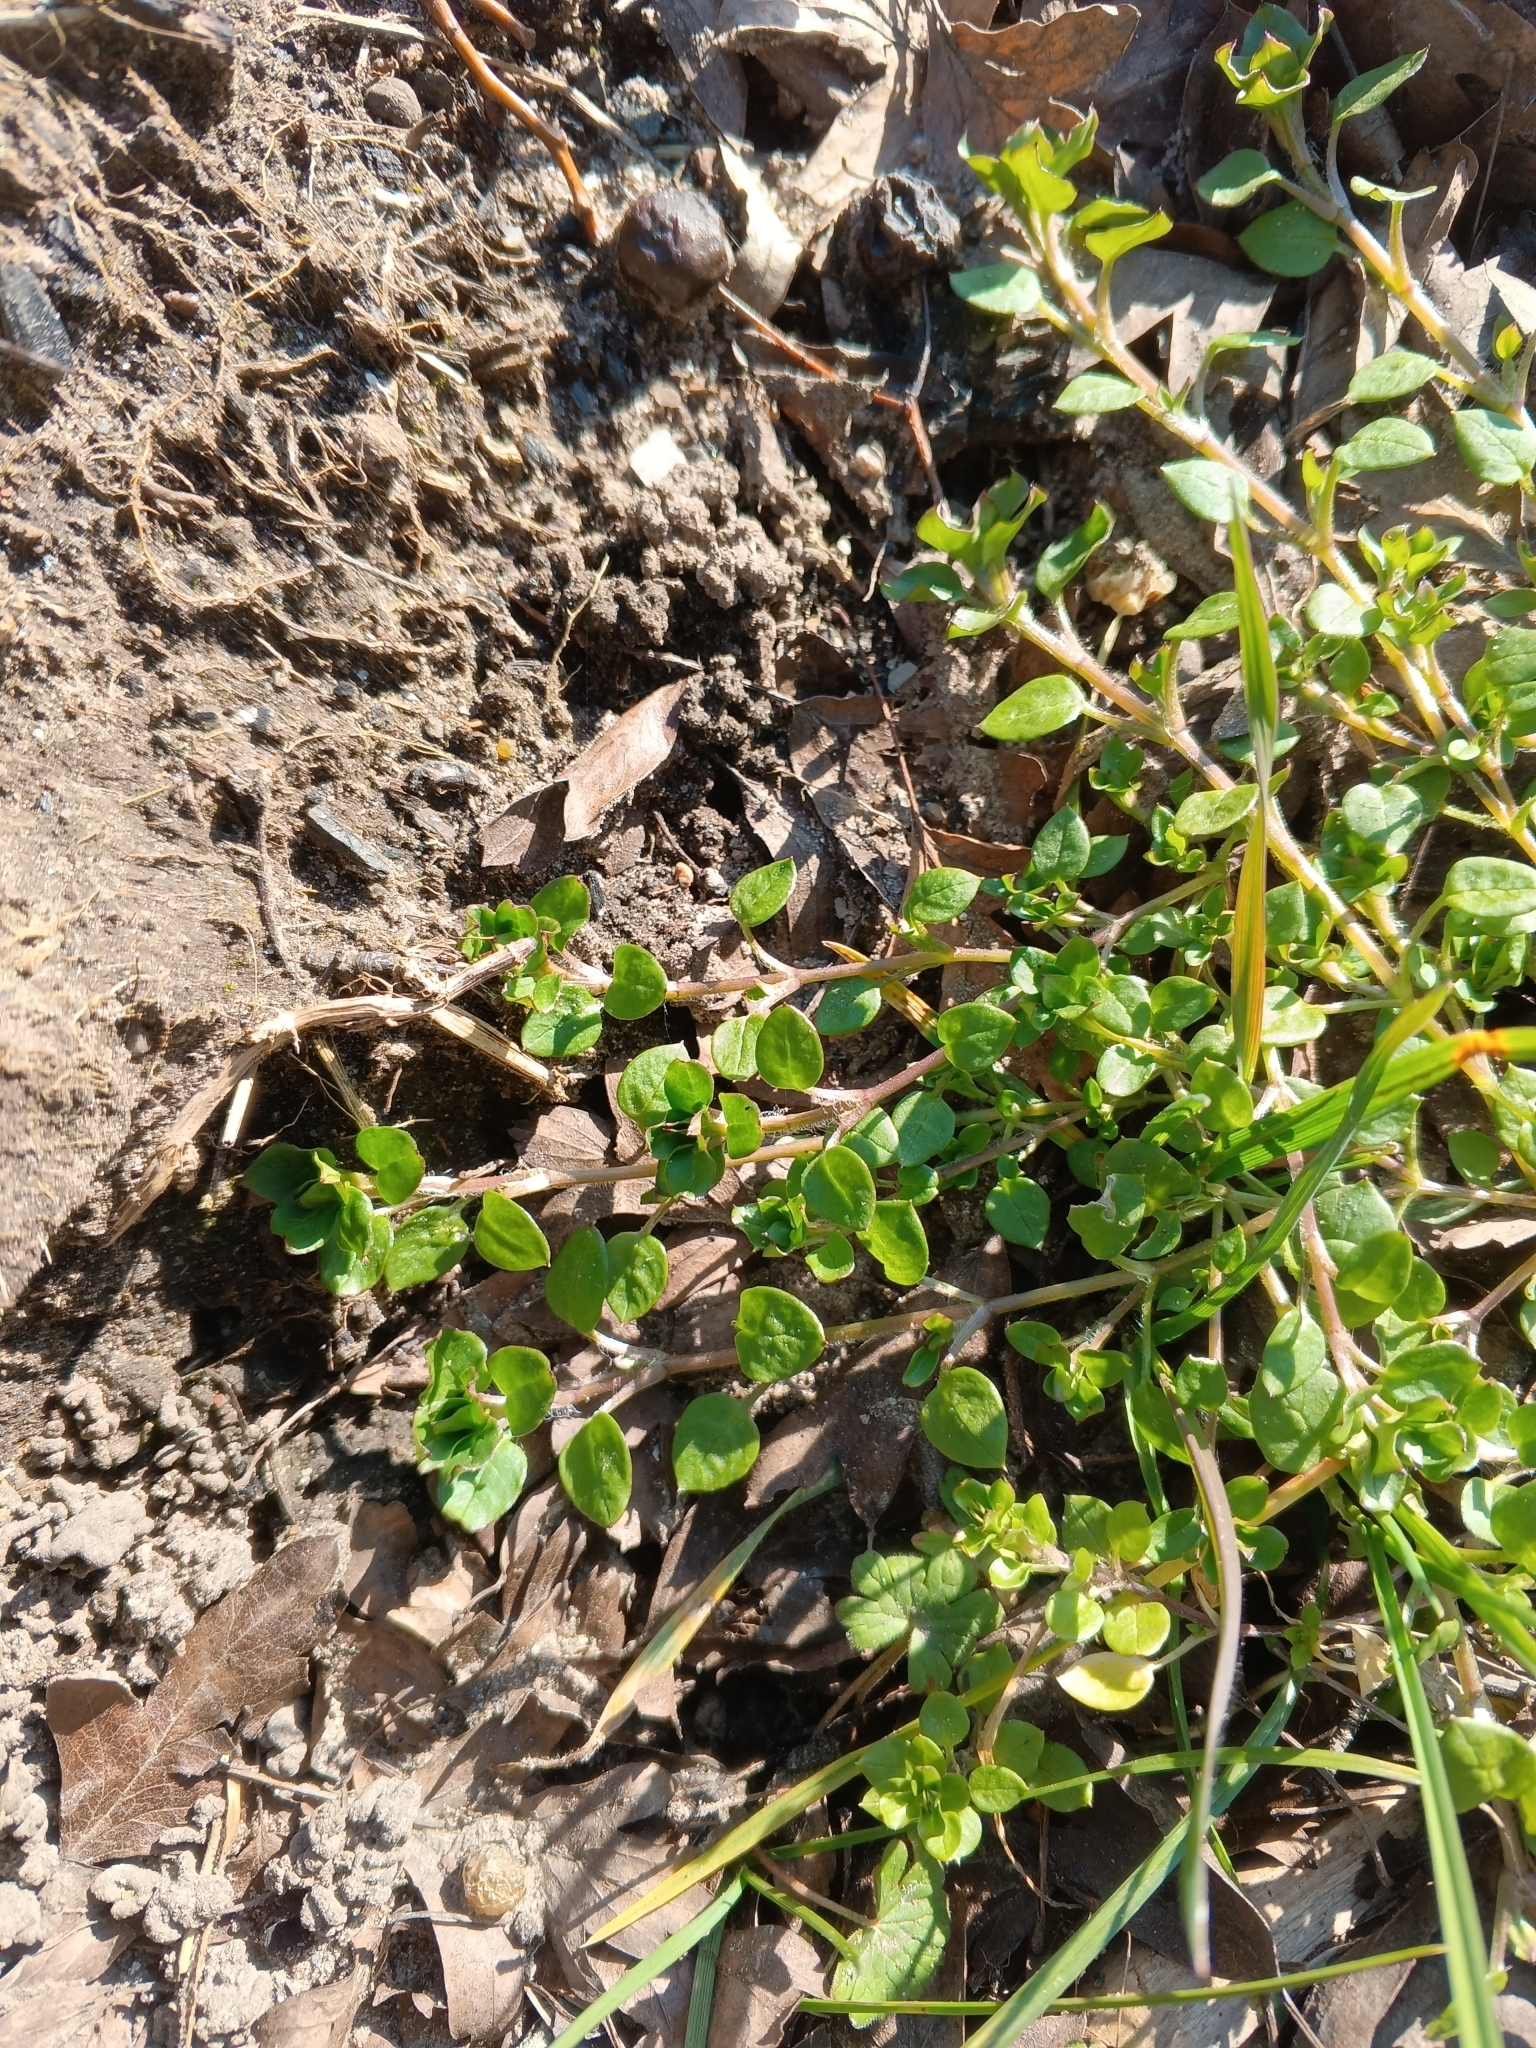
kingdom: Plantae
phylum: Tracheophyta
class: Magnoliopsida
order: Caryophyllales
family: Caryophyllaceae
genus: Stellaria
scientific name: Stellaria media
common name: Common chickweed
